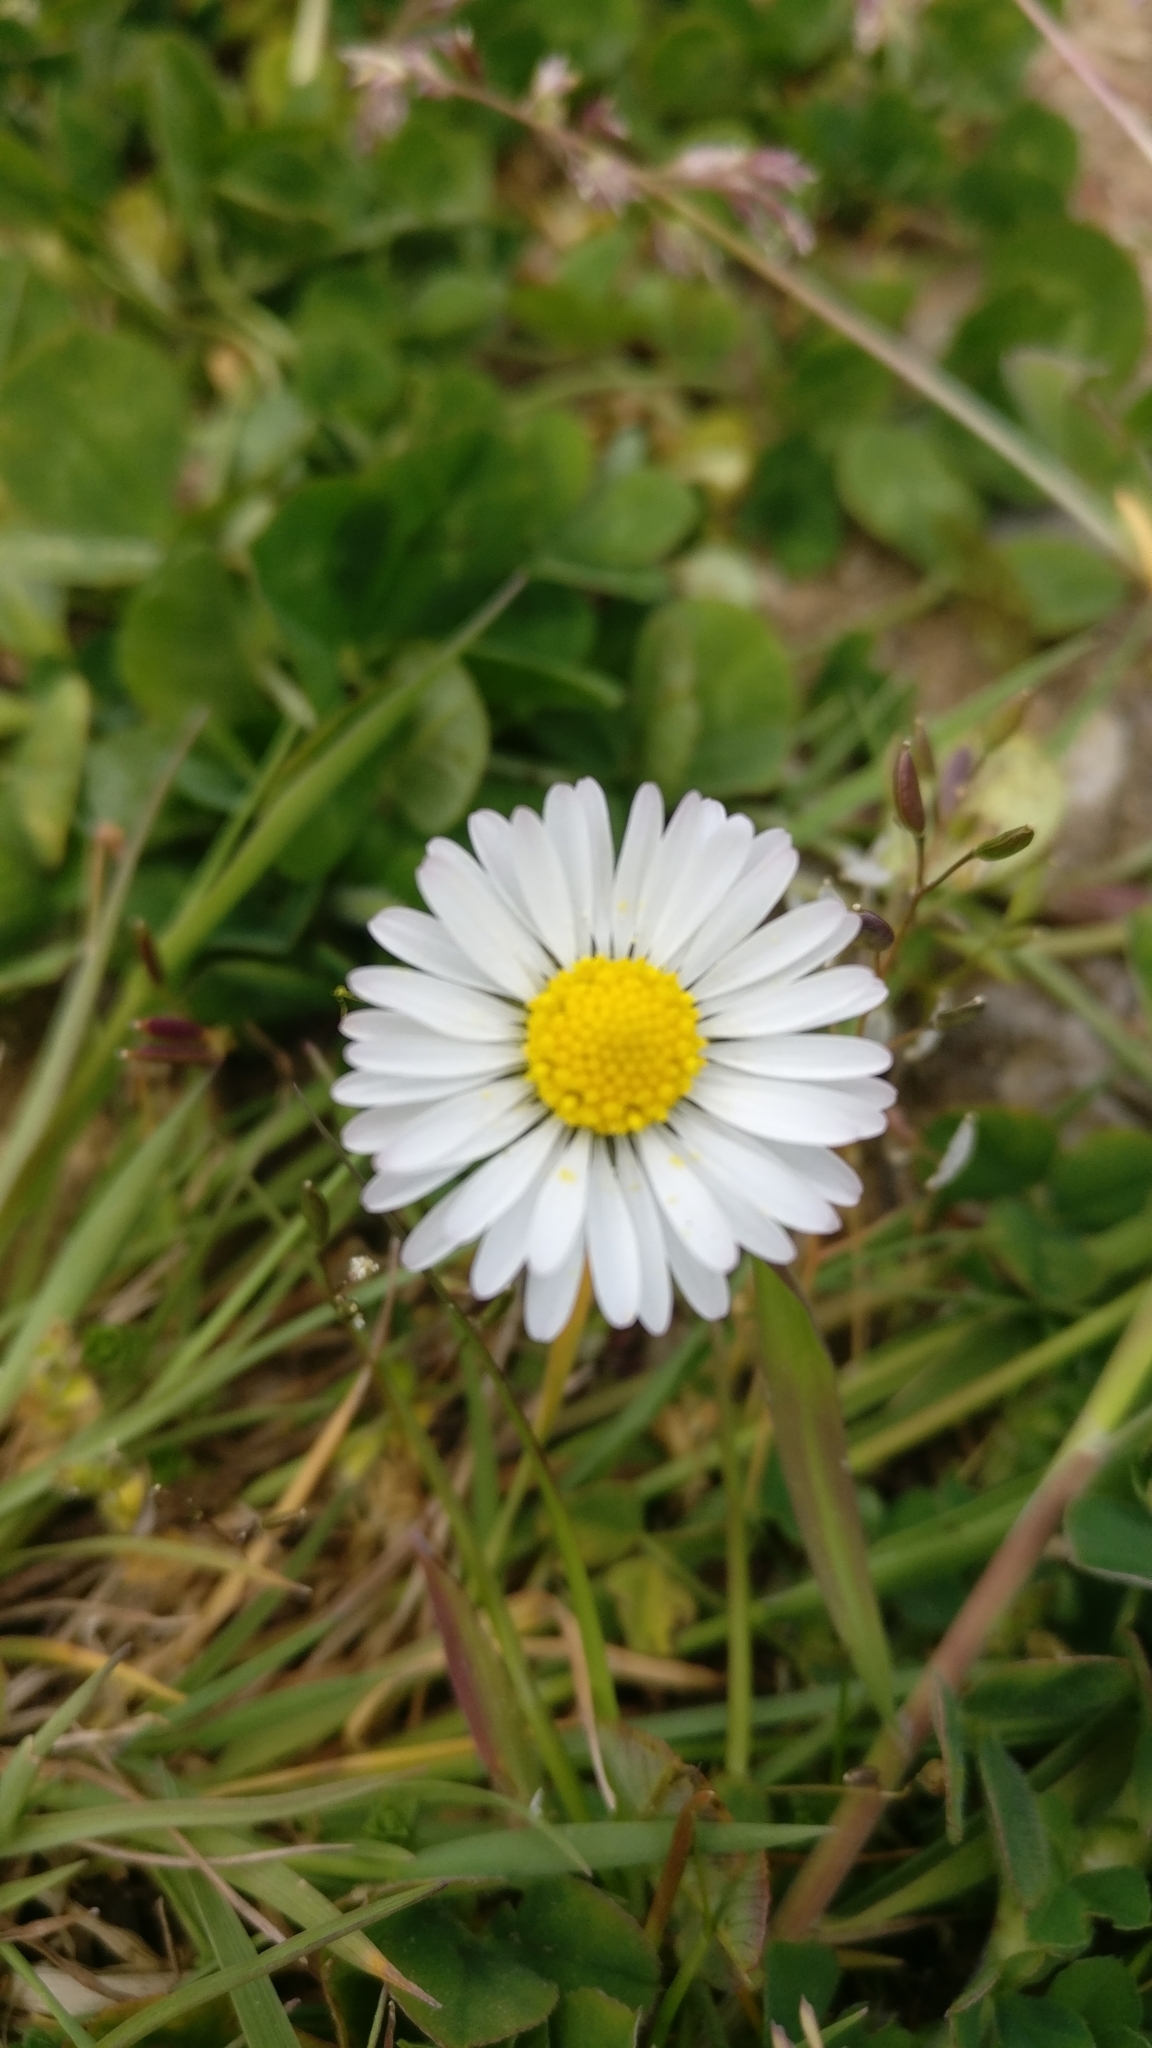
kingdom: Plantae
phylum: Tracheophyta
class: Magnoliopsida
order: Asterales
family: Asteraceae
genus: Bellis
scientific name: Bellis perennis
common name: Lawndaisy
